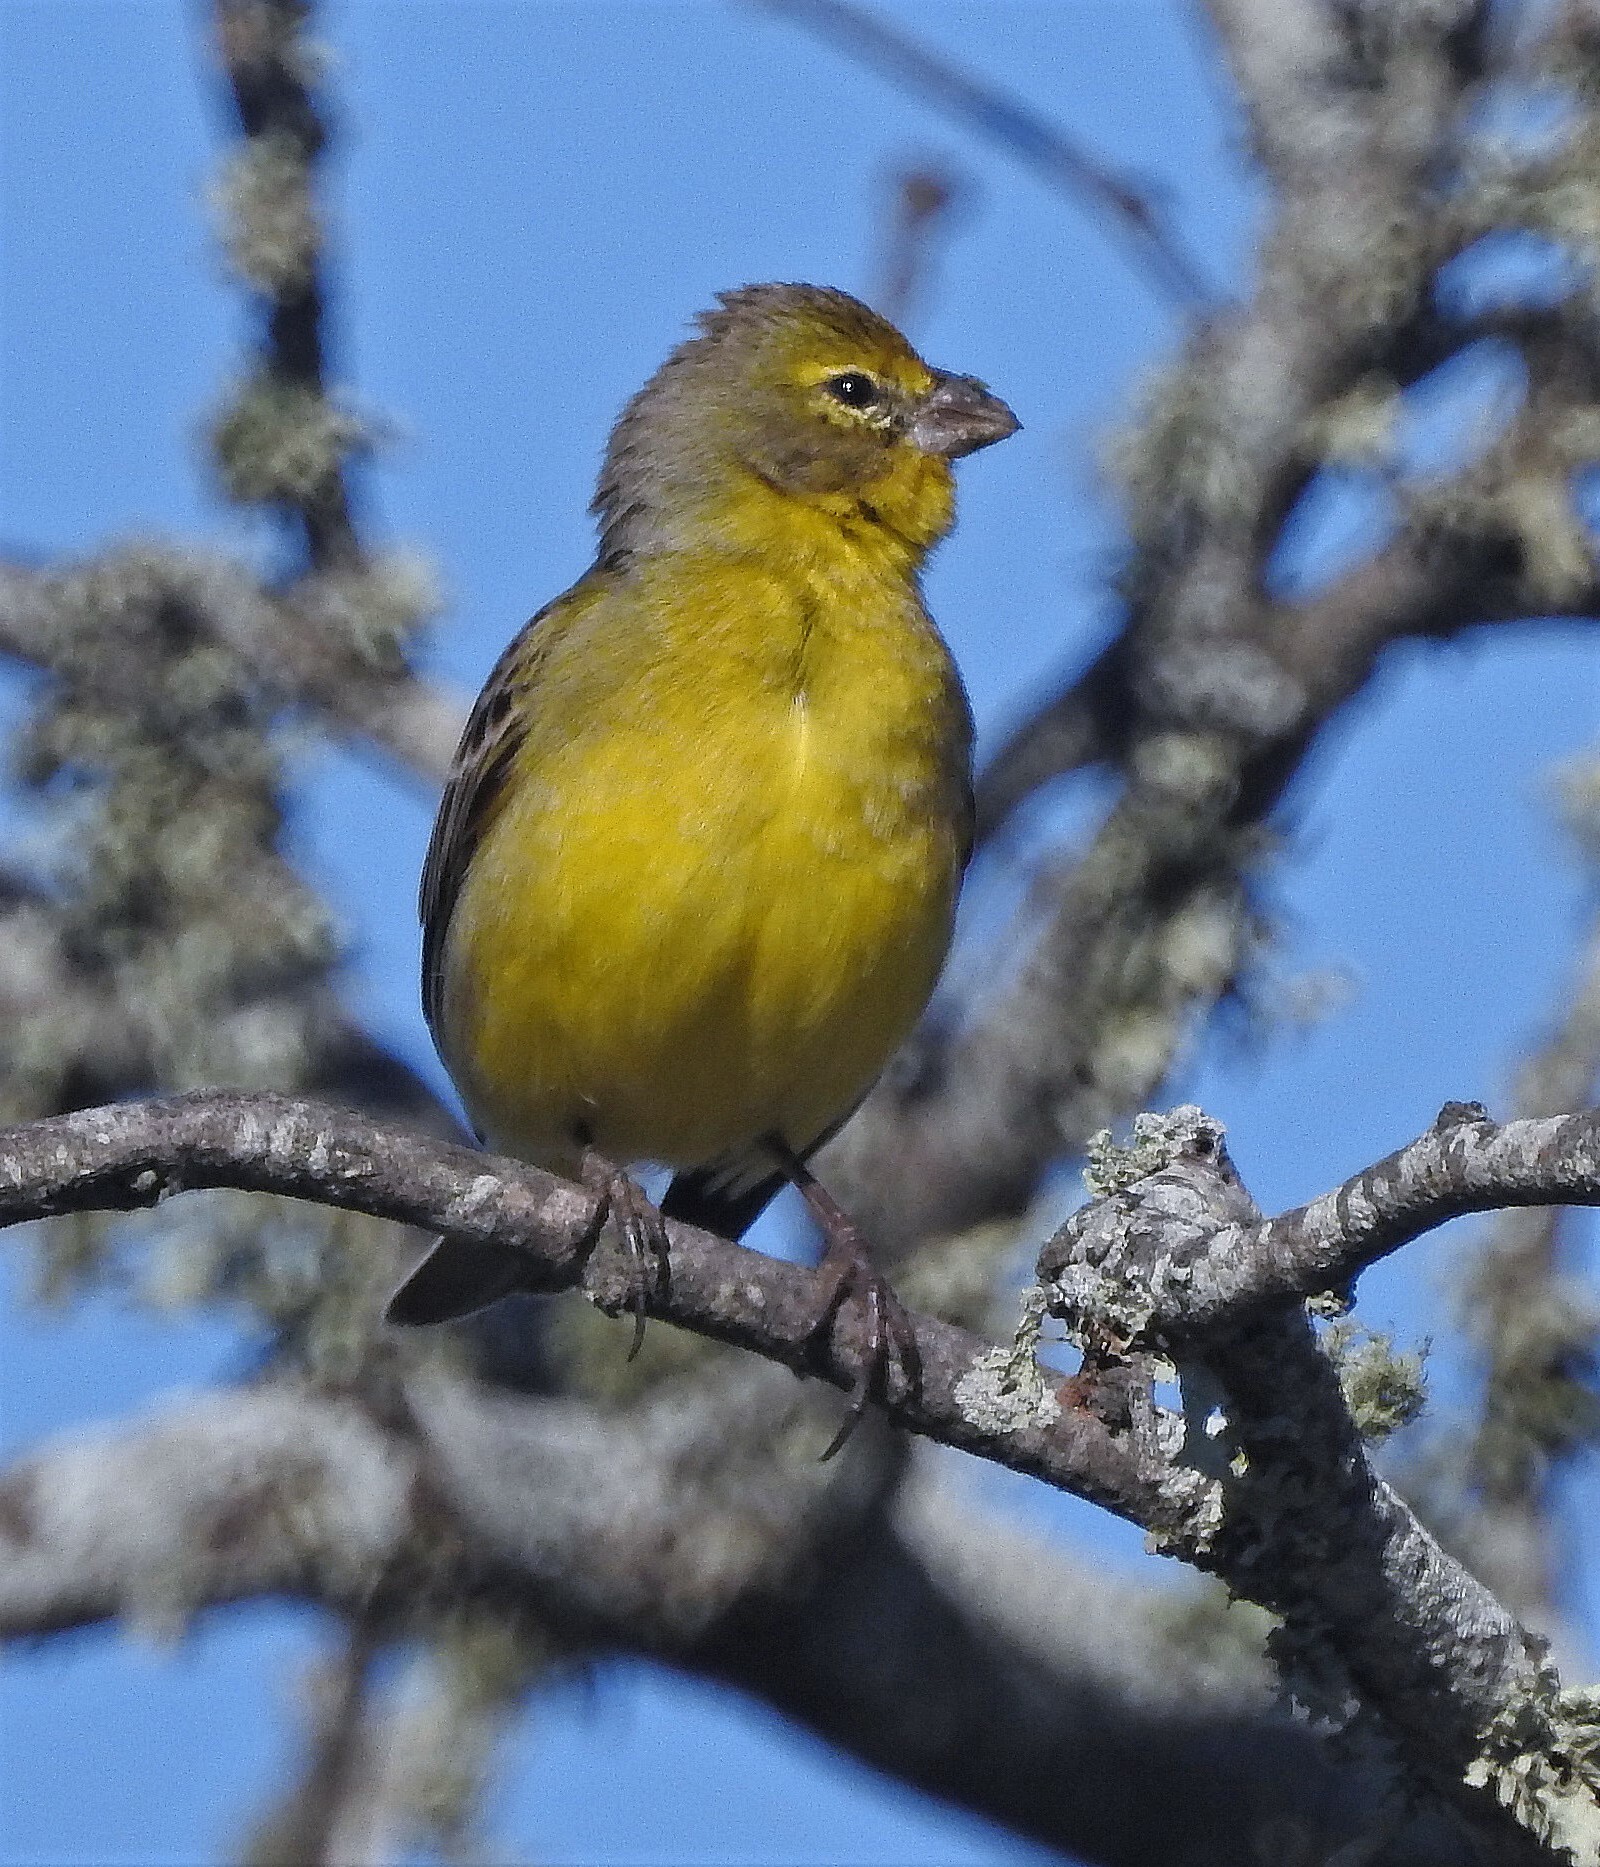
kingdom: Animalia
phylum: Chordata
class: Aves
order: Passeriformes
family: Thraupidae
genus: Sicalis
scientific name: Sicalis luteola
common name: Grassland yellow-finch
